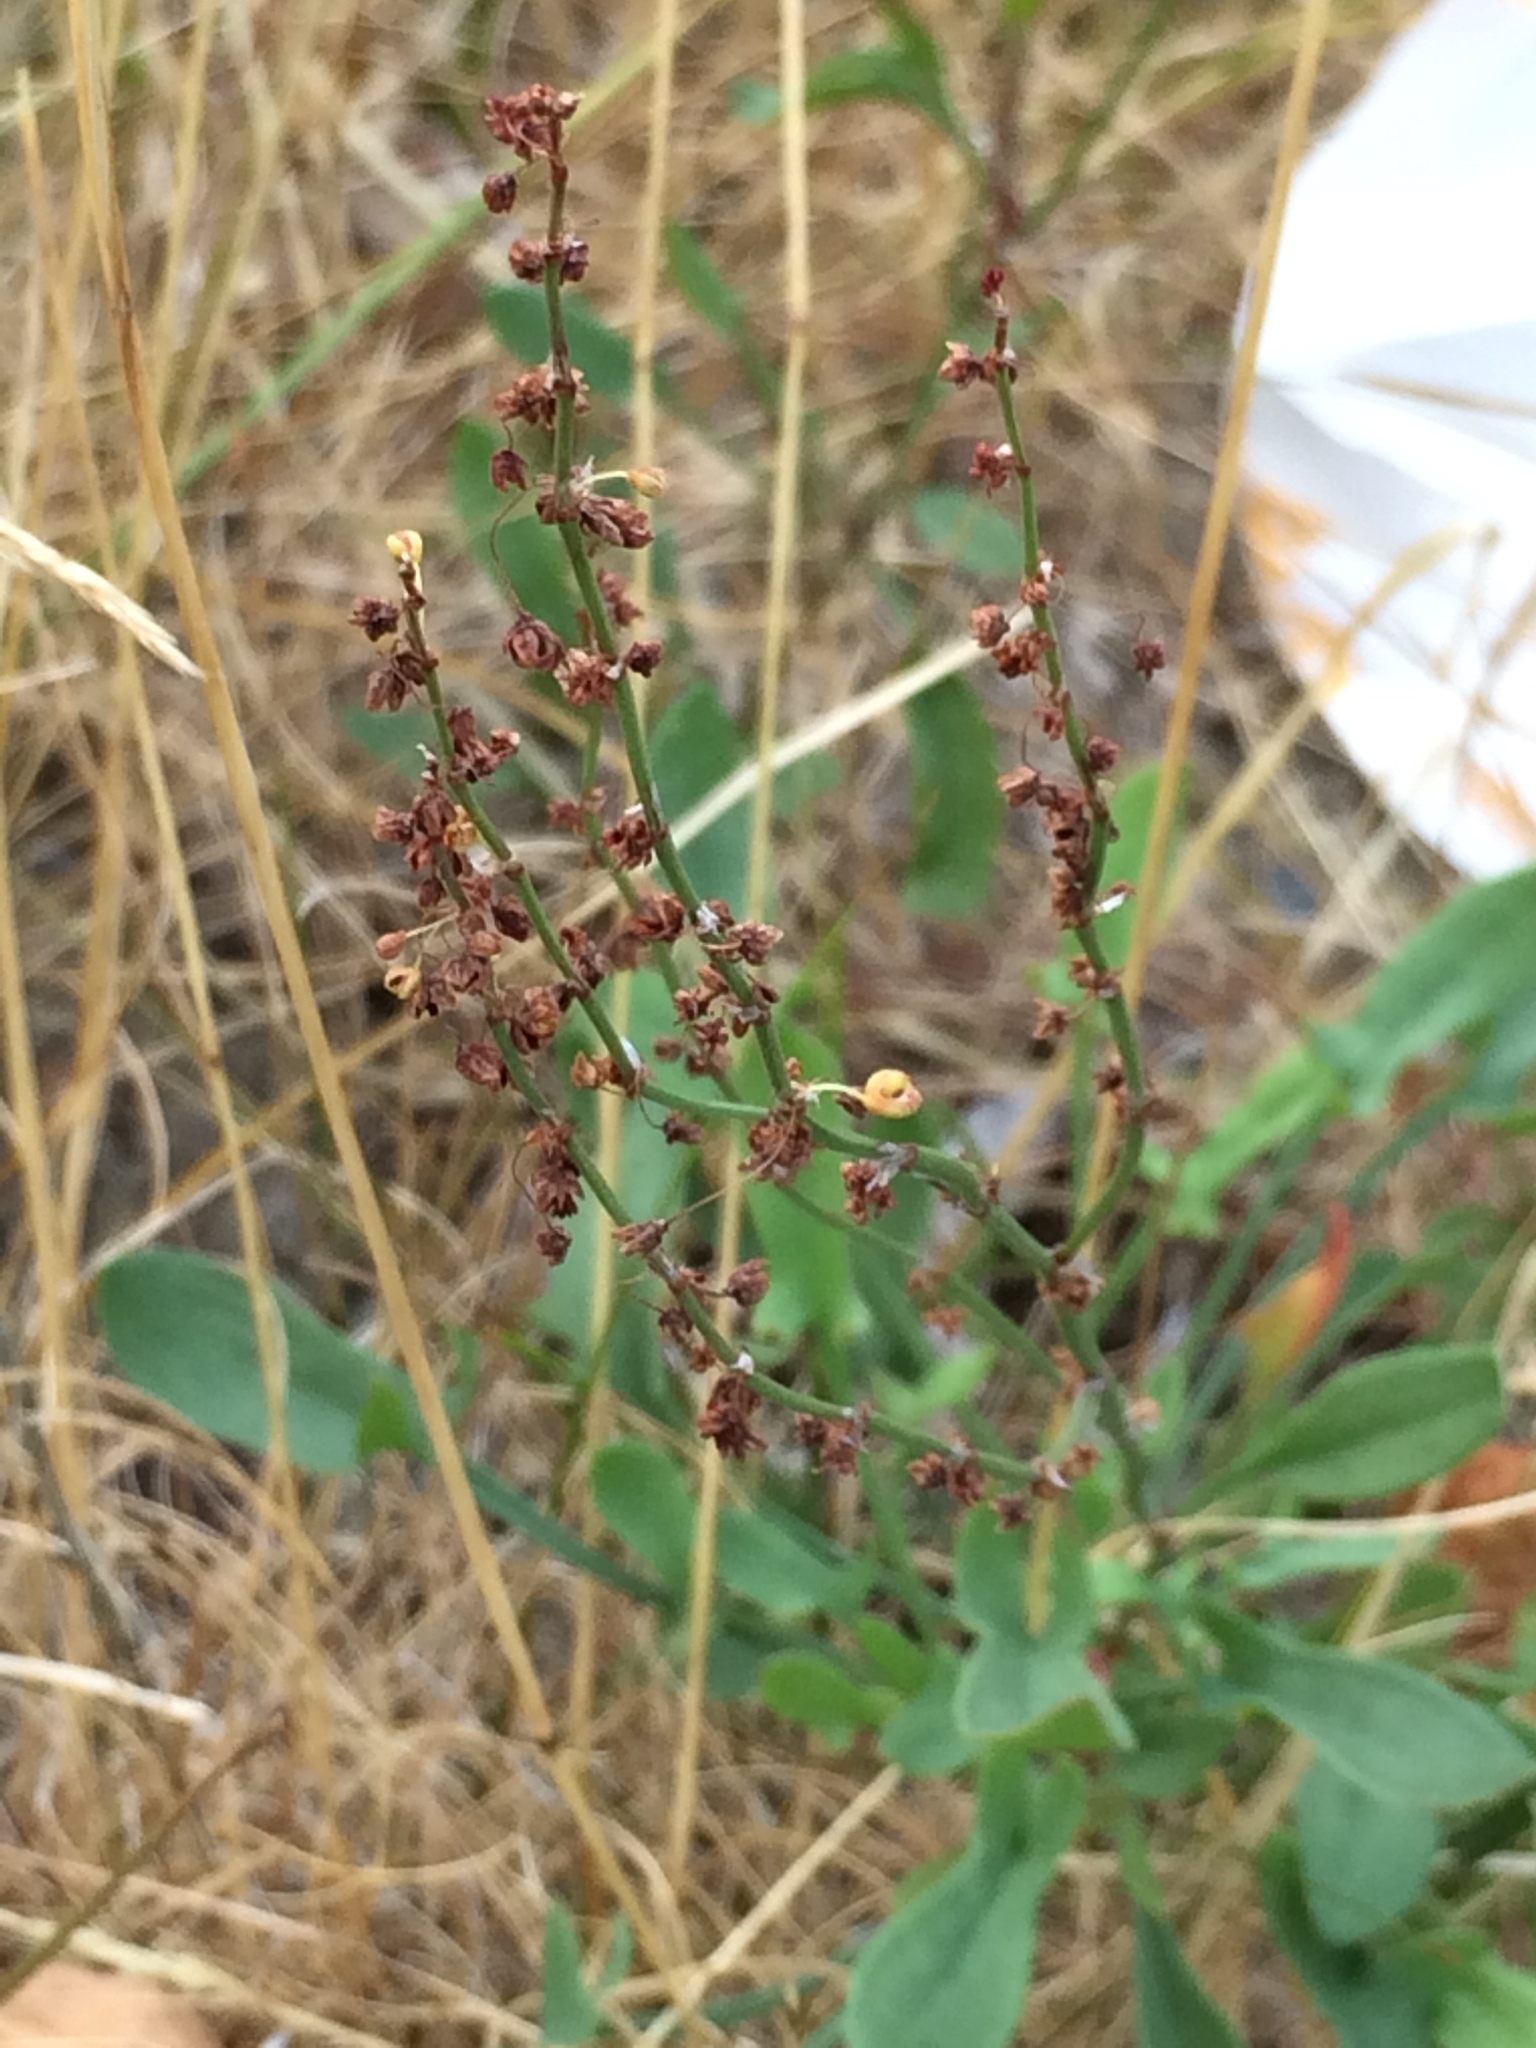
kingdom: Plantae
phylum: Tracheophyta
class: Magnoliopsida
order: Caryophyllales
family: Polygonaceae
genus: Rumex
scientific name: Rumex acetosella
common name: Common sheep sorrel
